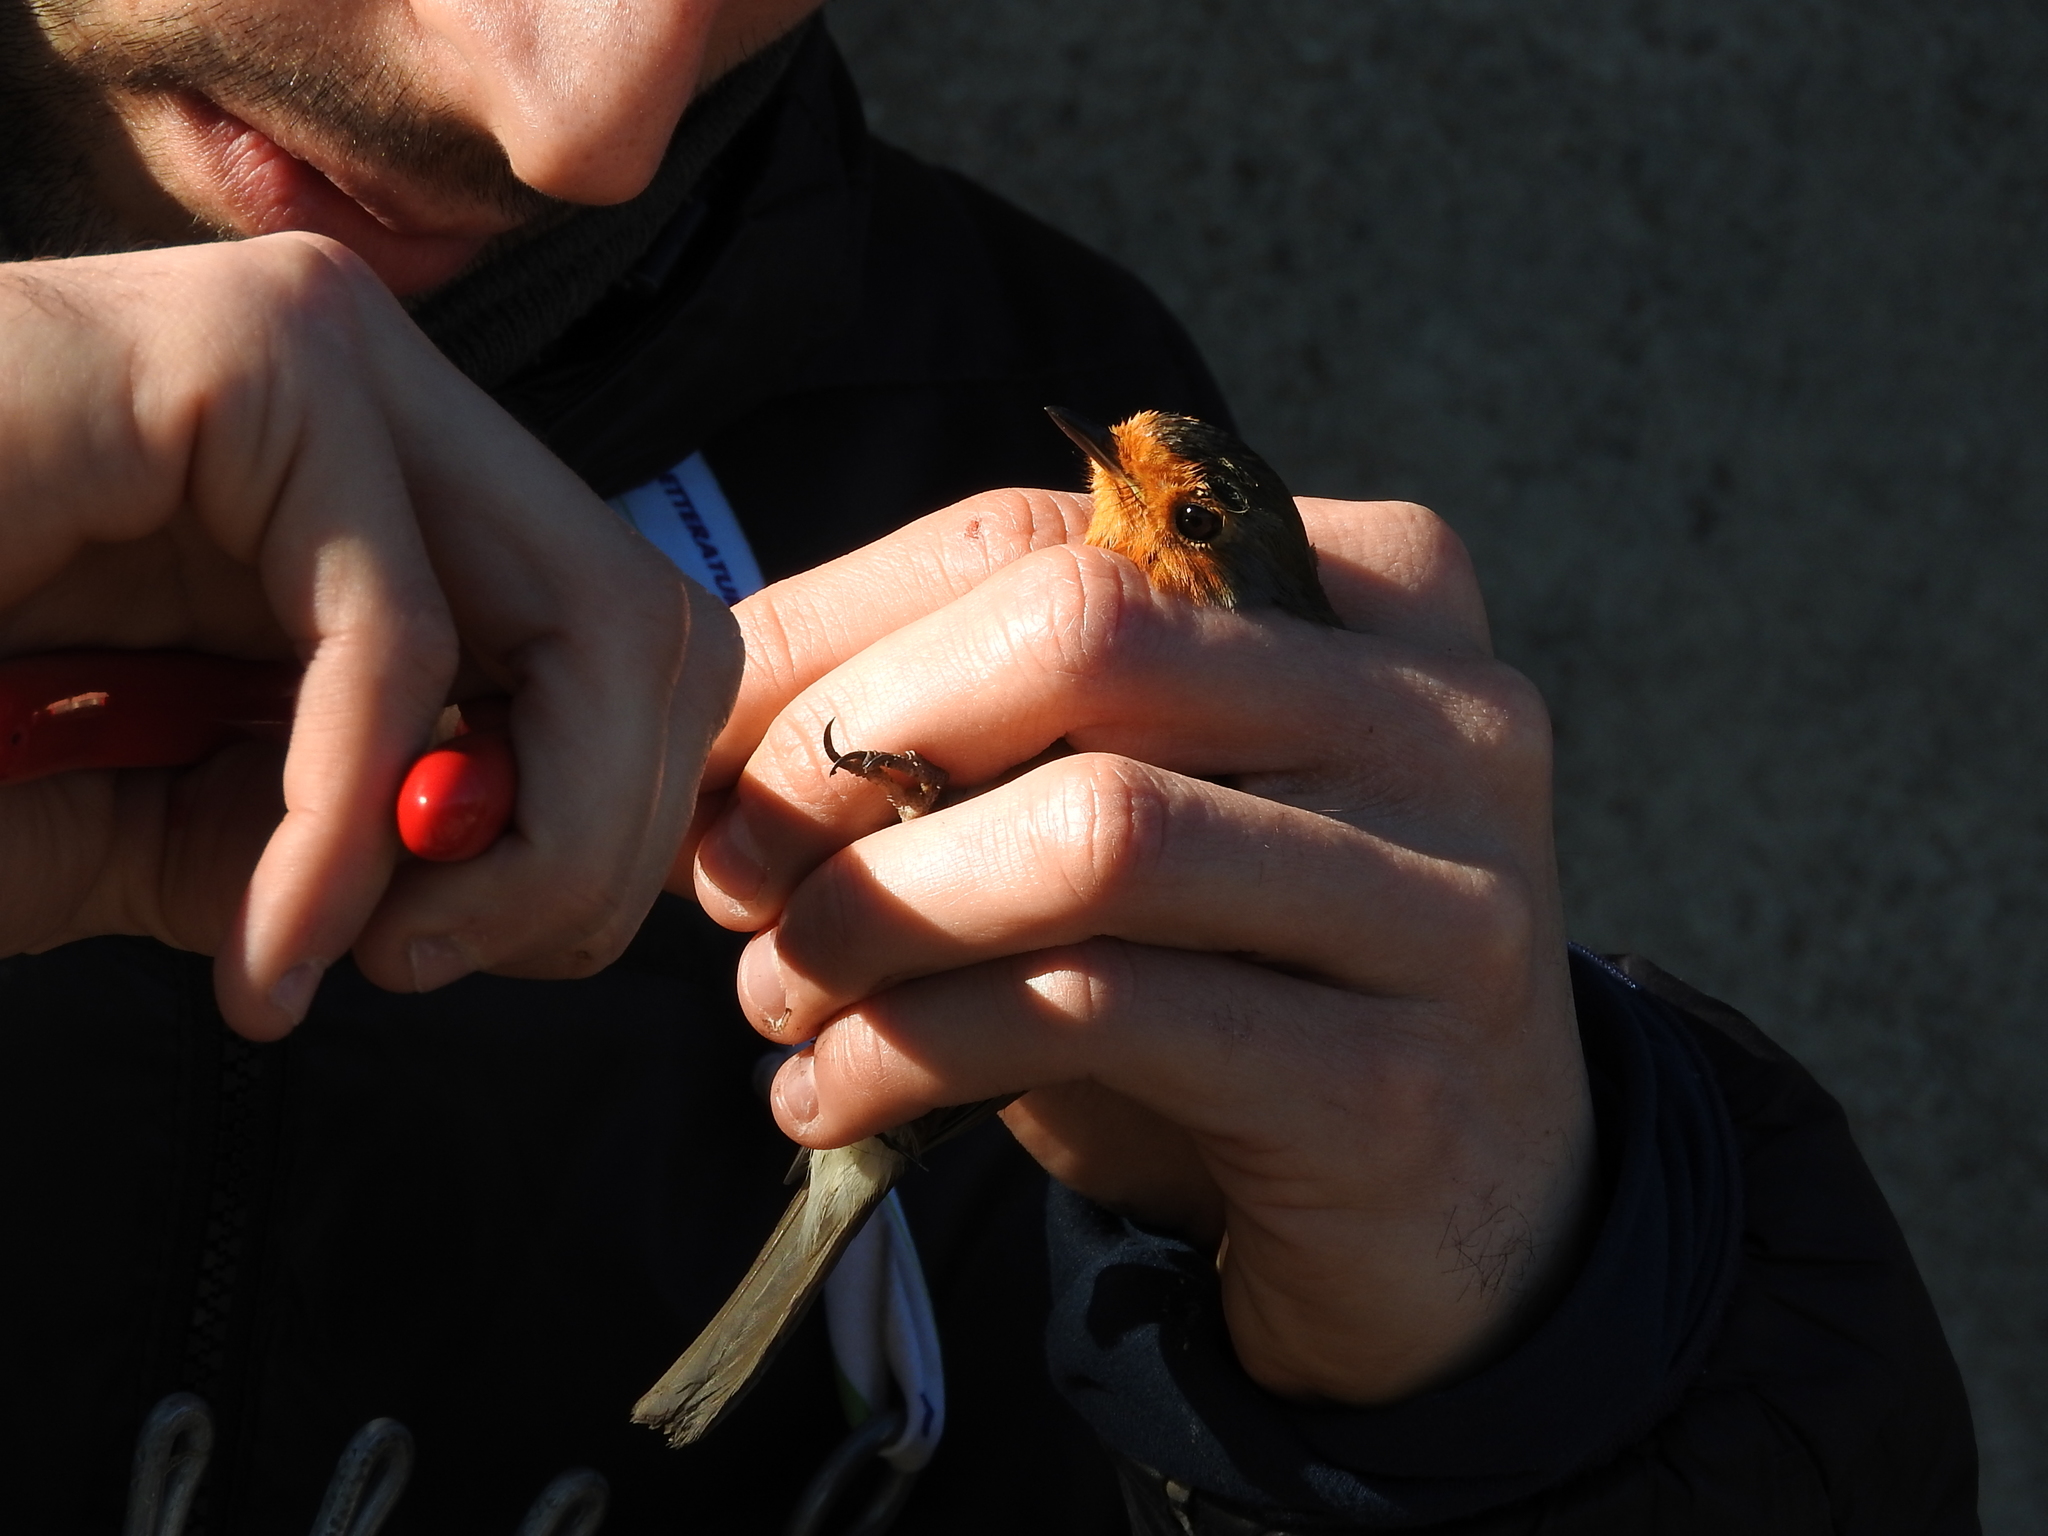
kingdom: Animalia
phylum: Chordata
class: Aves
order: Passeriformes
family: Muscicapidae
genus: Erithacus
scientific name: Erithacus rubecula
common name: European robin
